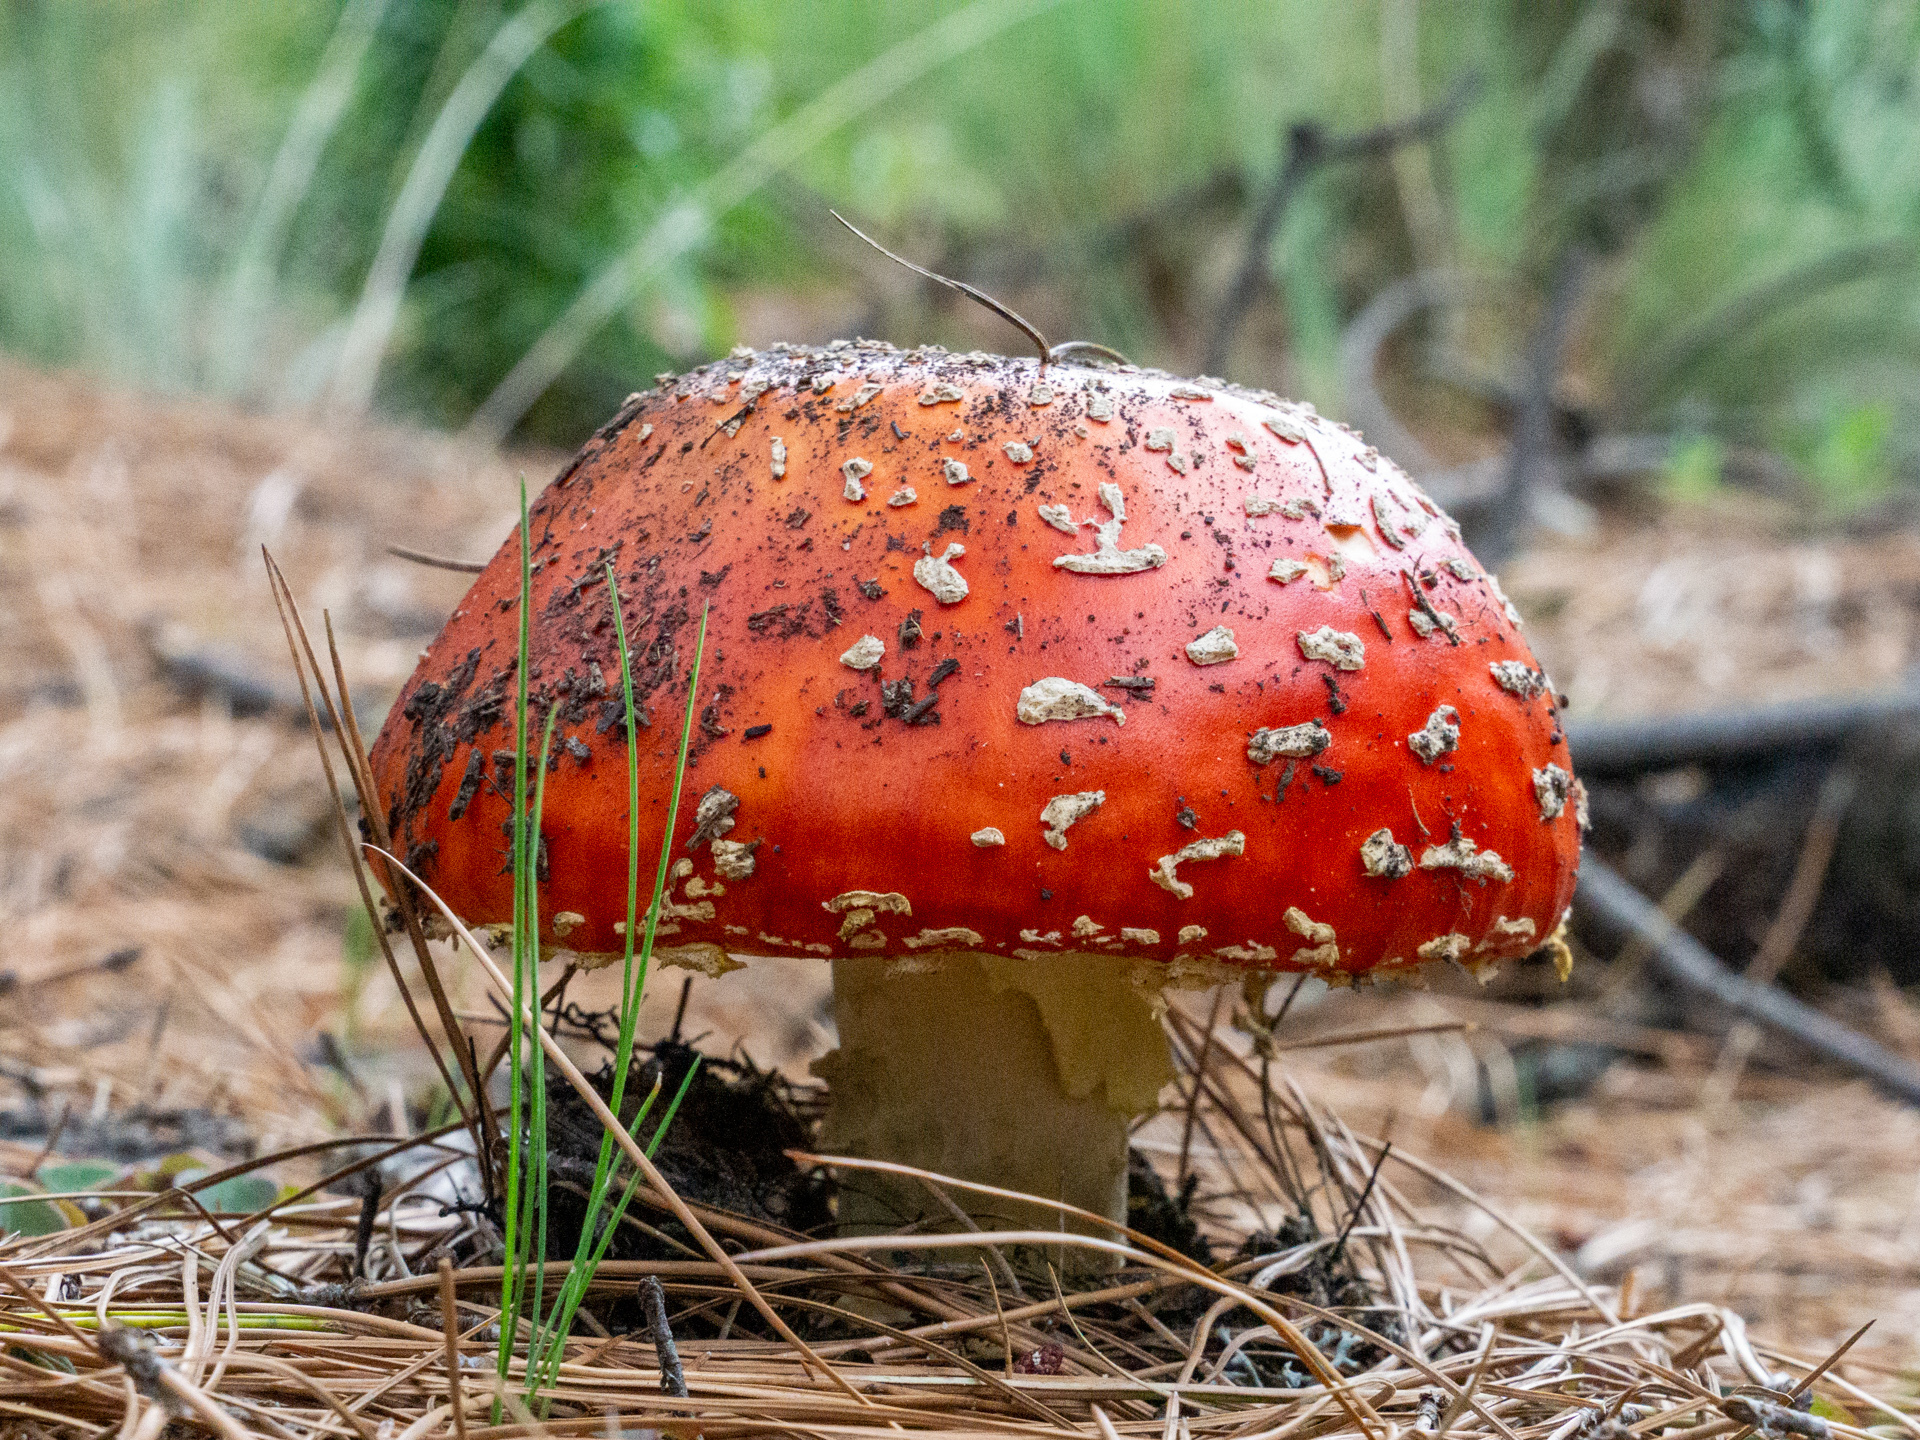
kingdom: Fungi
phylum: Basidiomycota
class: Agaricomycetes
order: Agaricales
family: Amanitaceae
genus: Amanita
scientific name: Amanita muscaria
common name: Fly agaric
